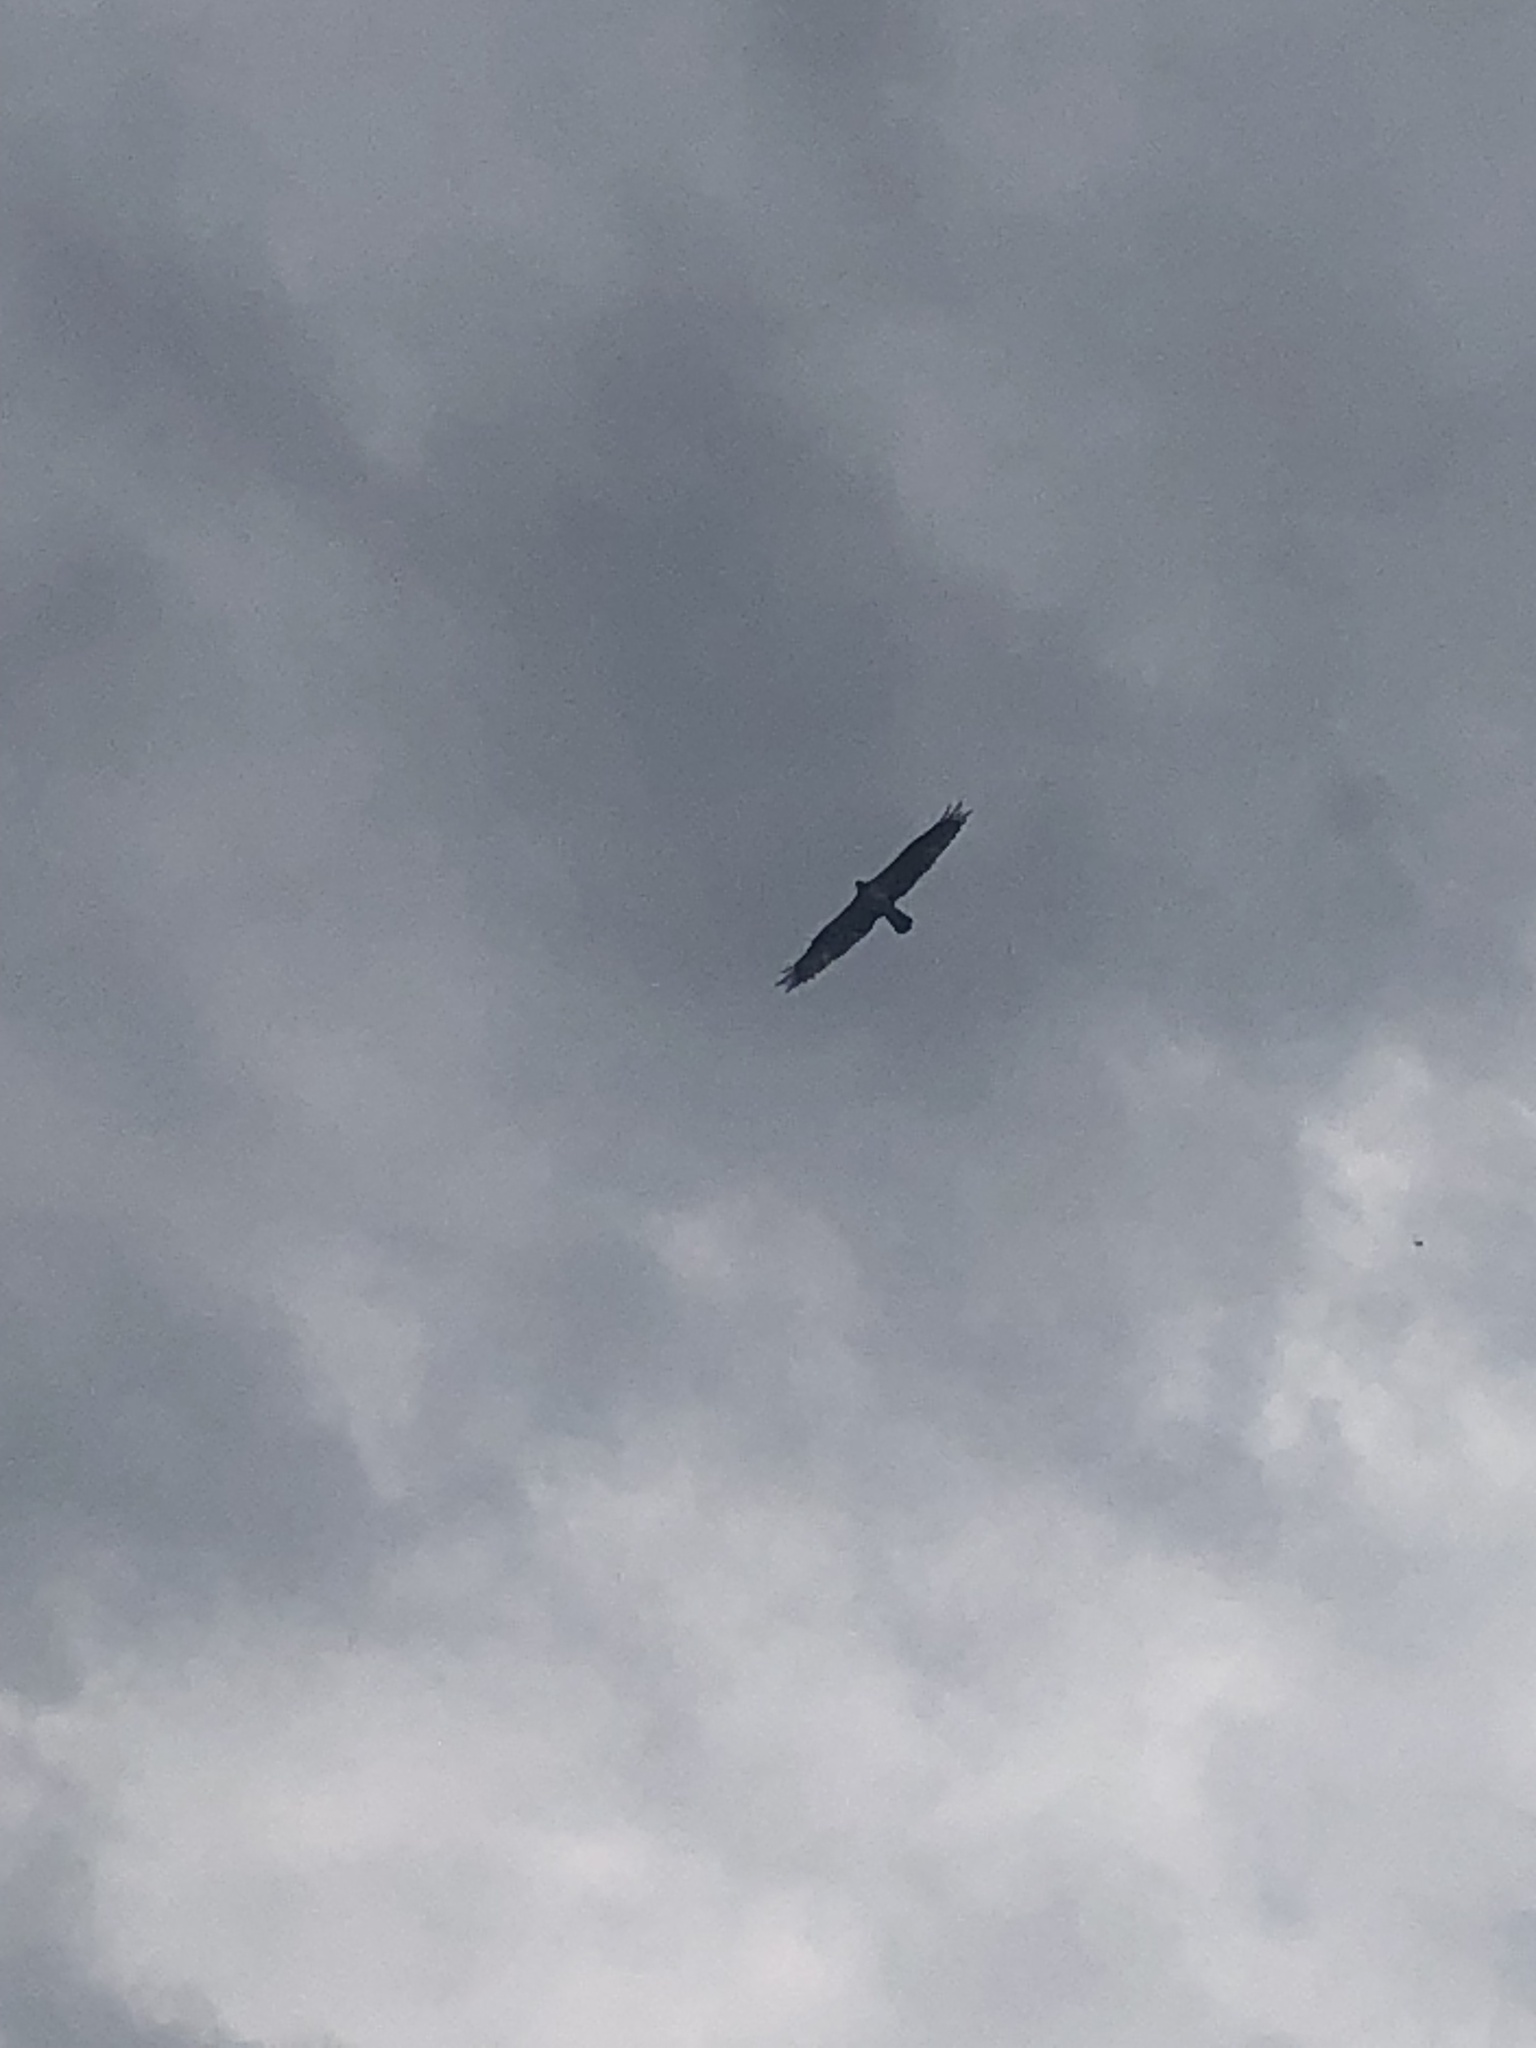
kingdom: Animalia
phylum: Chordata
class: Aves
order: Accipitriformes
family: Pandionidae
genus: Pandion
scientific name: Pandion haliaetus
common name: Osprey
